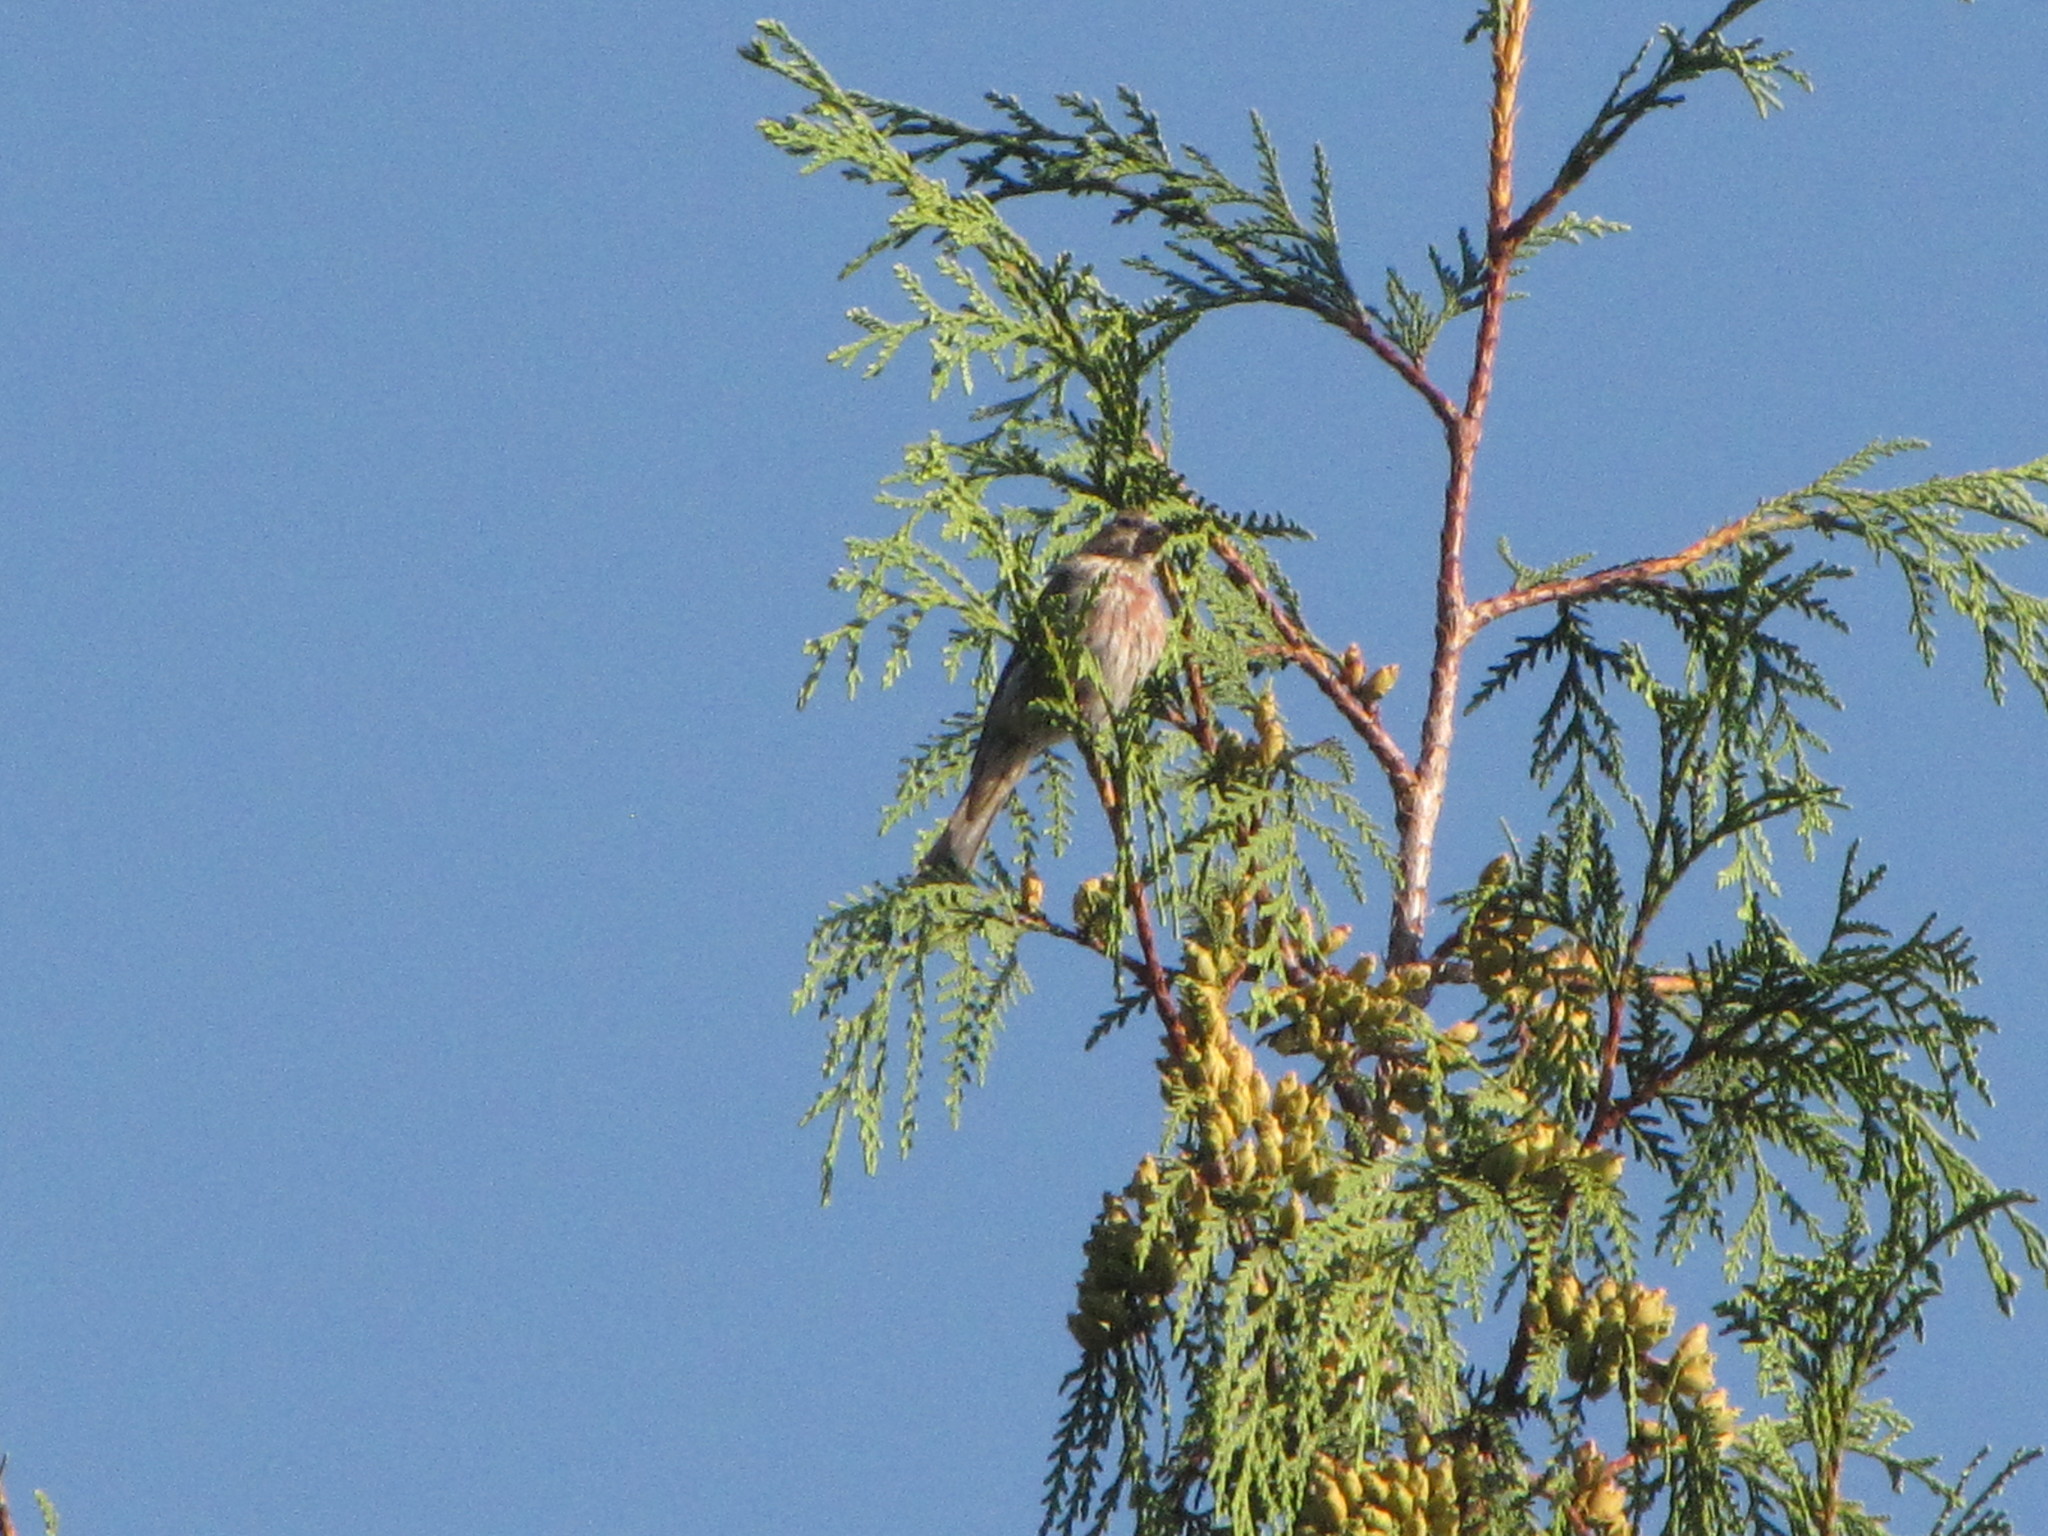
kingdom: Animalia
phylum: Chordata
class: Aves
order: Passeriformes
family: Fringillidae
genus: Haemorhous
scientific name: Haemorhous mexicanus
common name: House finch
